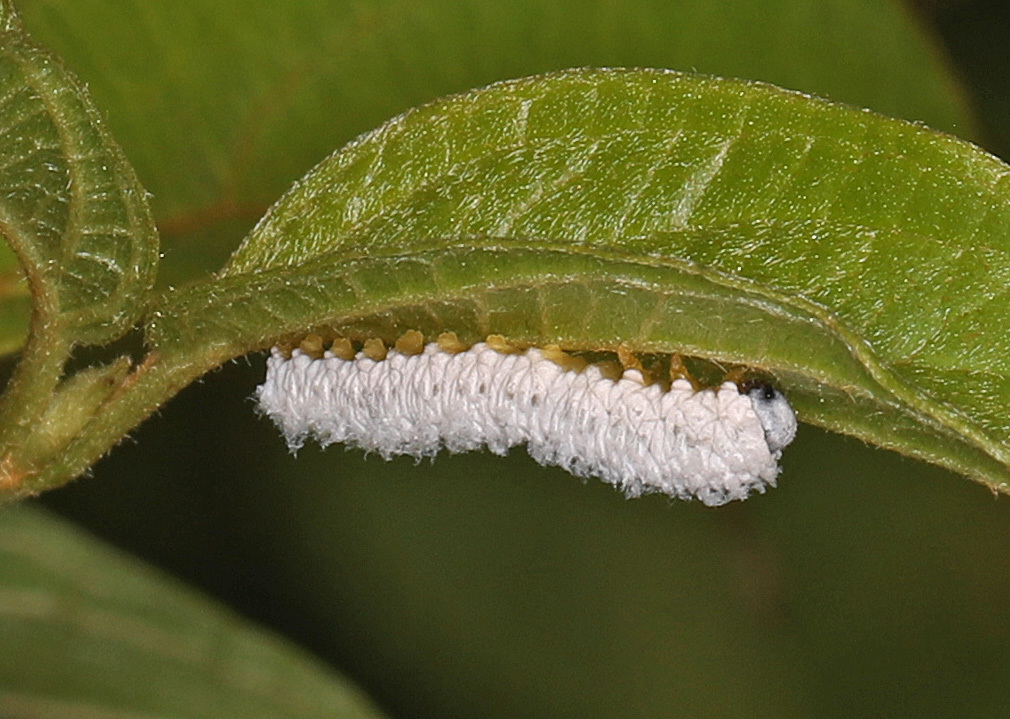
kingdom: Animalia
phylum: Arthropoda
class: Insecta
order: Hymenoptera
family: Tenthredinidae
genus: Macremphytus
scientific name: Macremphytus testaceus
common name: Dogwood sawfly
